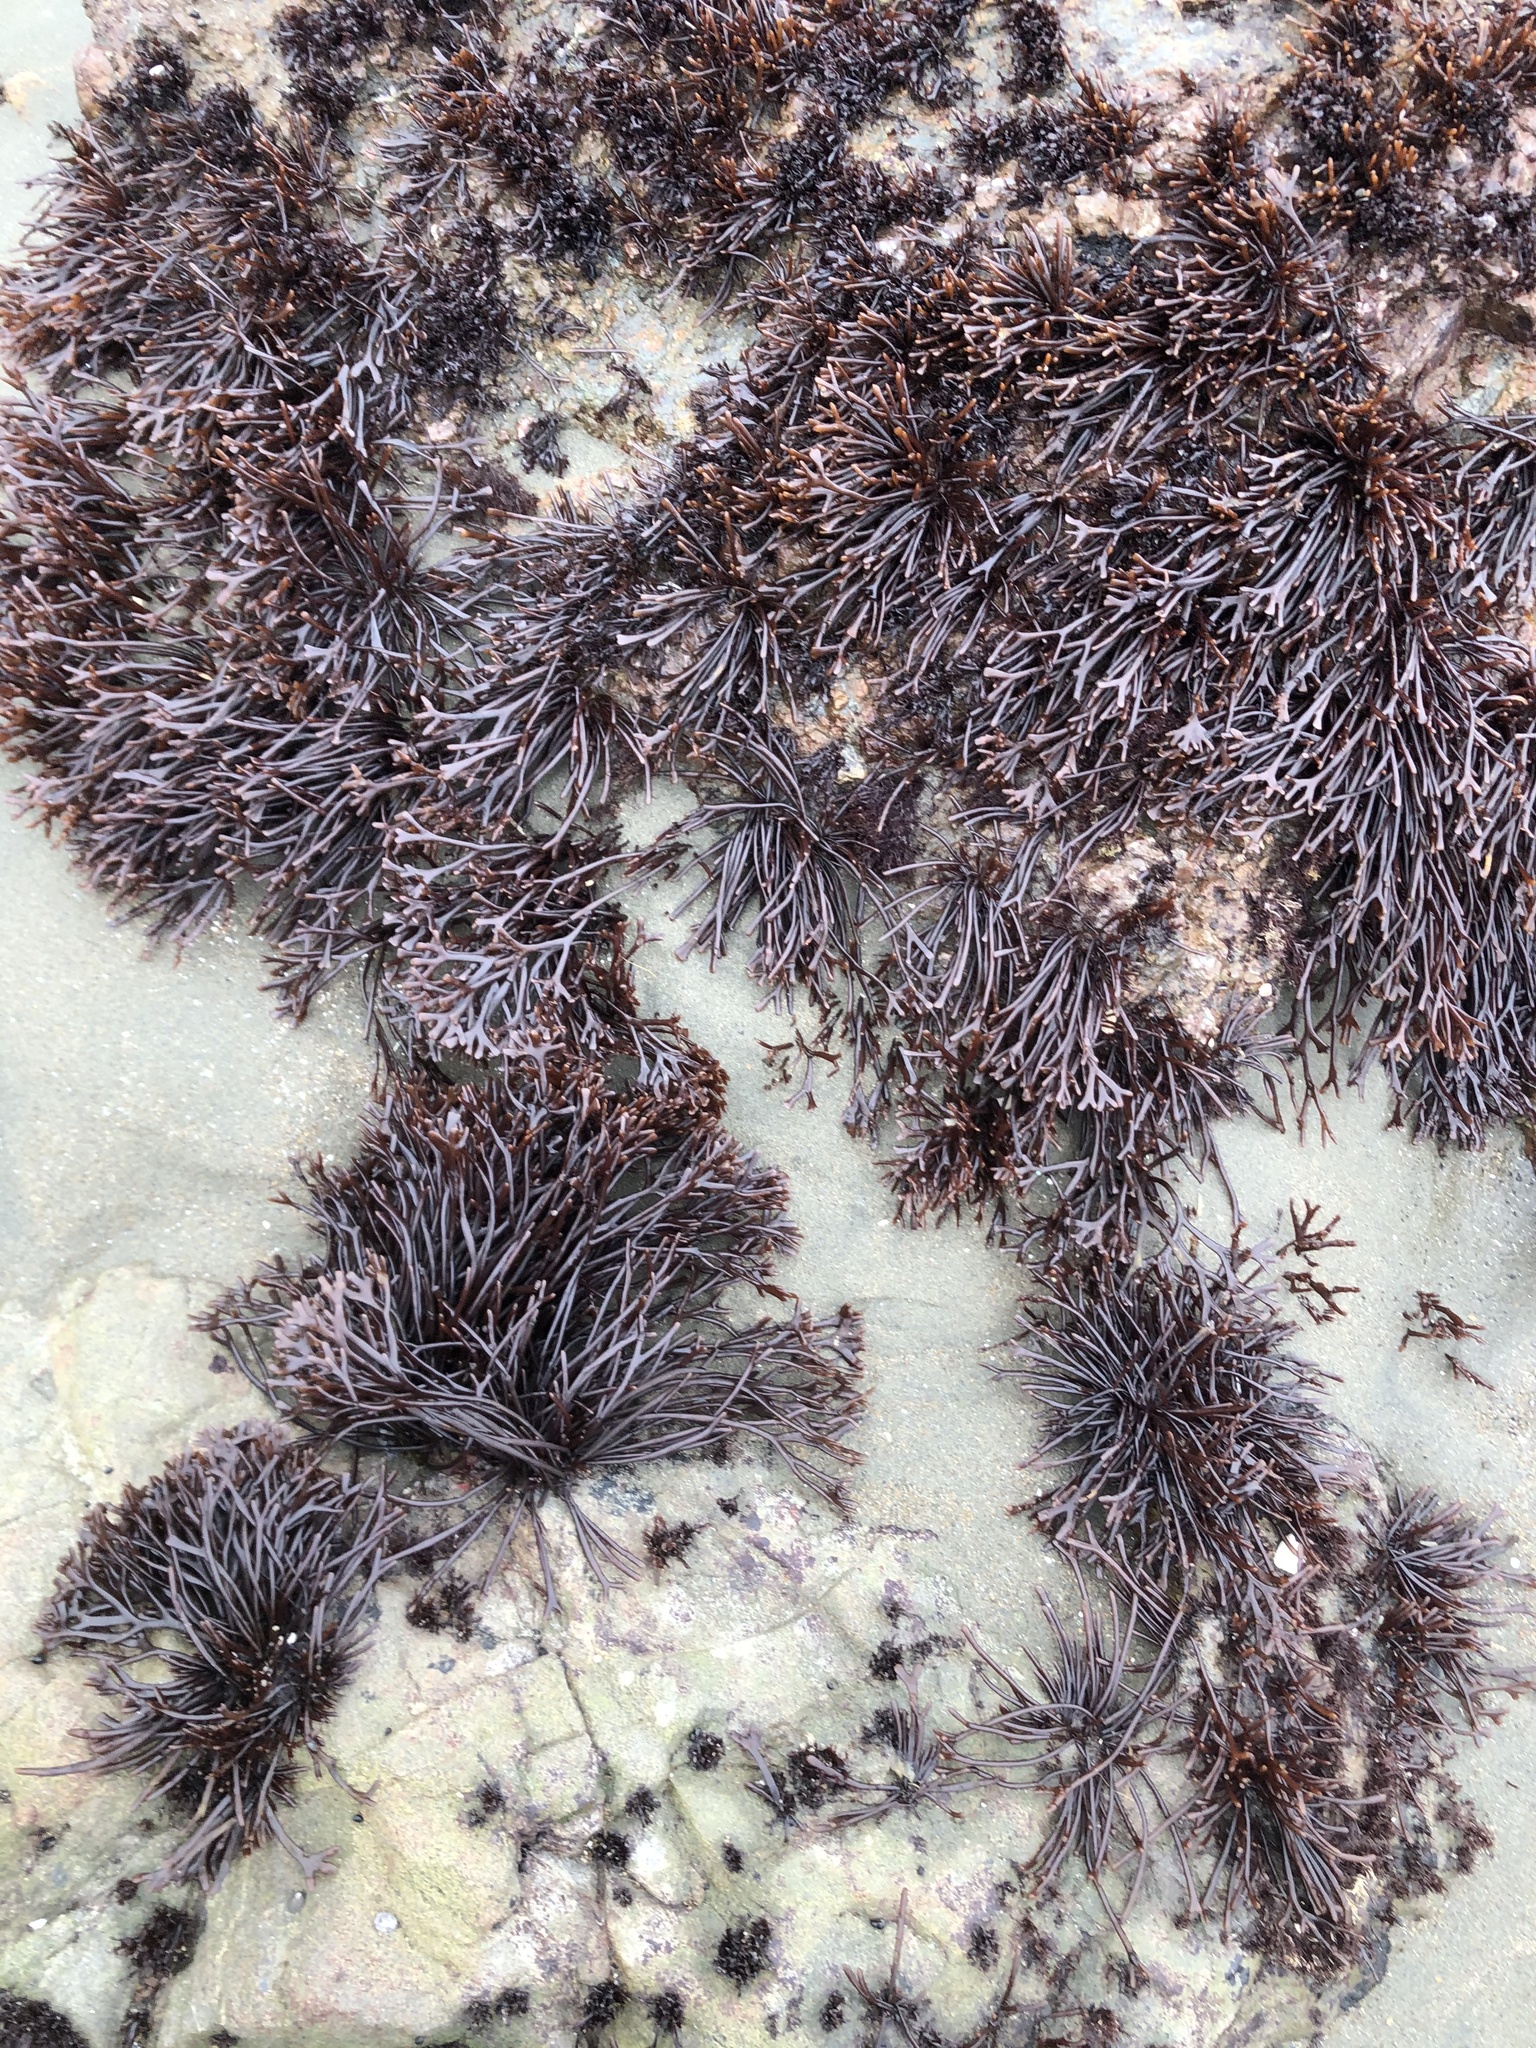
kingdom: Plantae
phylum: Rhodophyta
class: Florideophyceae
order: Gigartinales
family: Phyllophoraceae
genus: Ahnfeltiopsis
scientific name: Ahnfeltiopsis linearis
